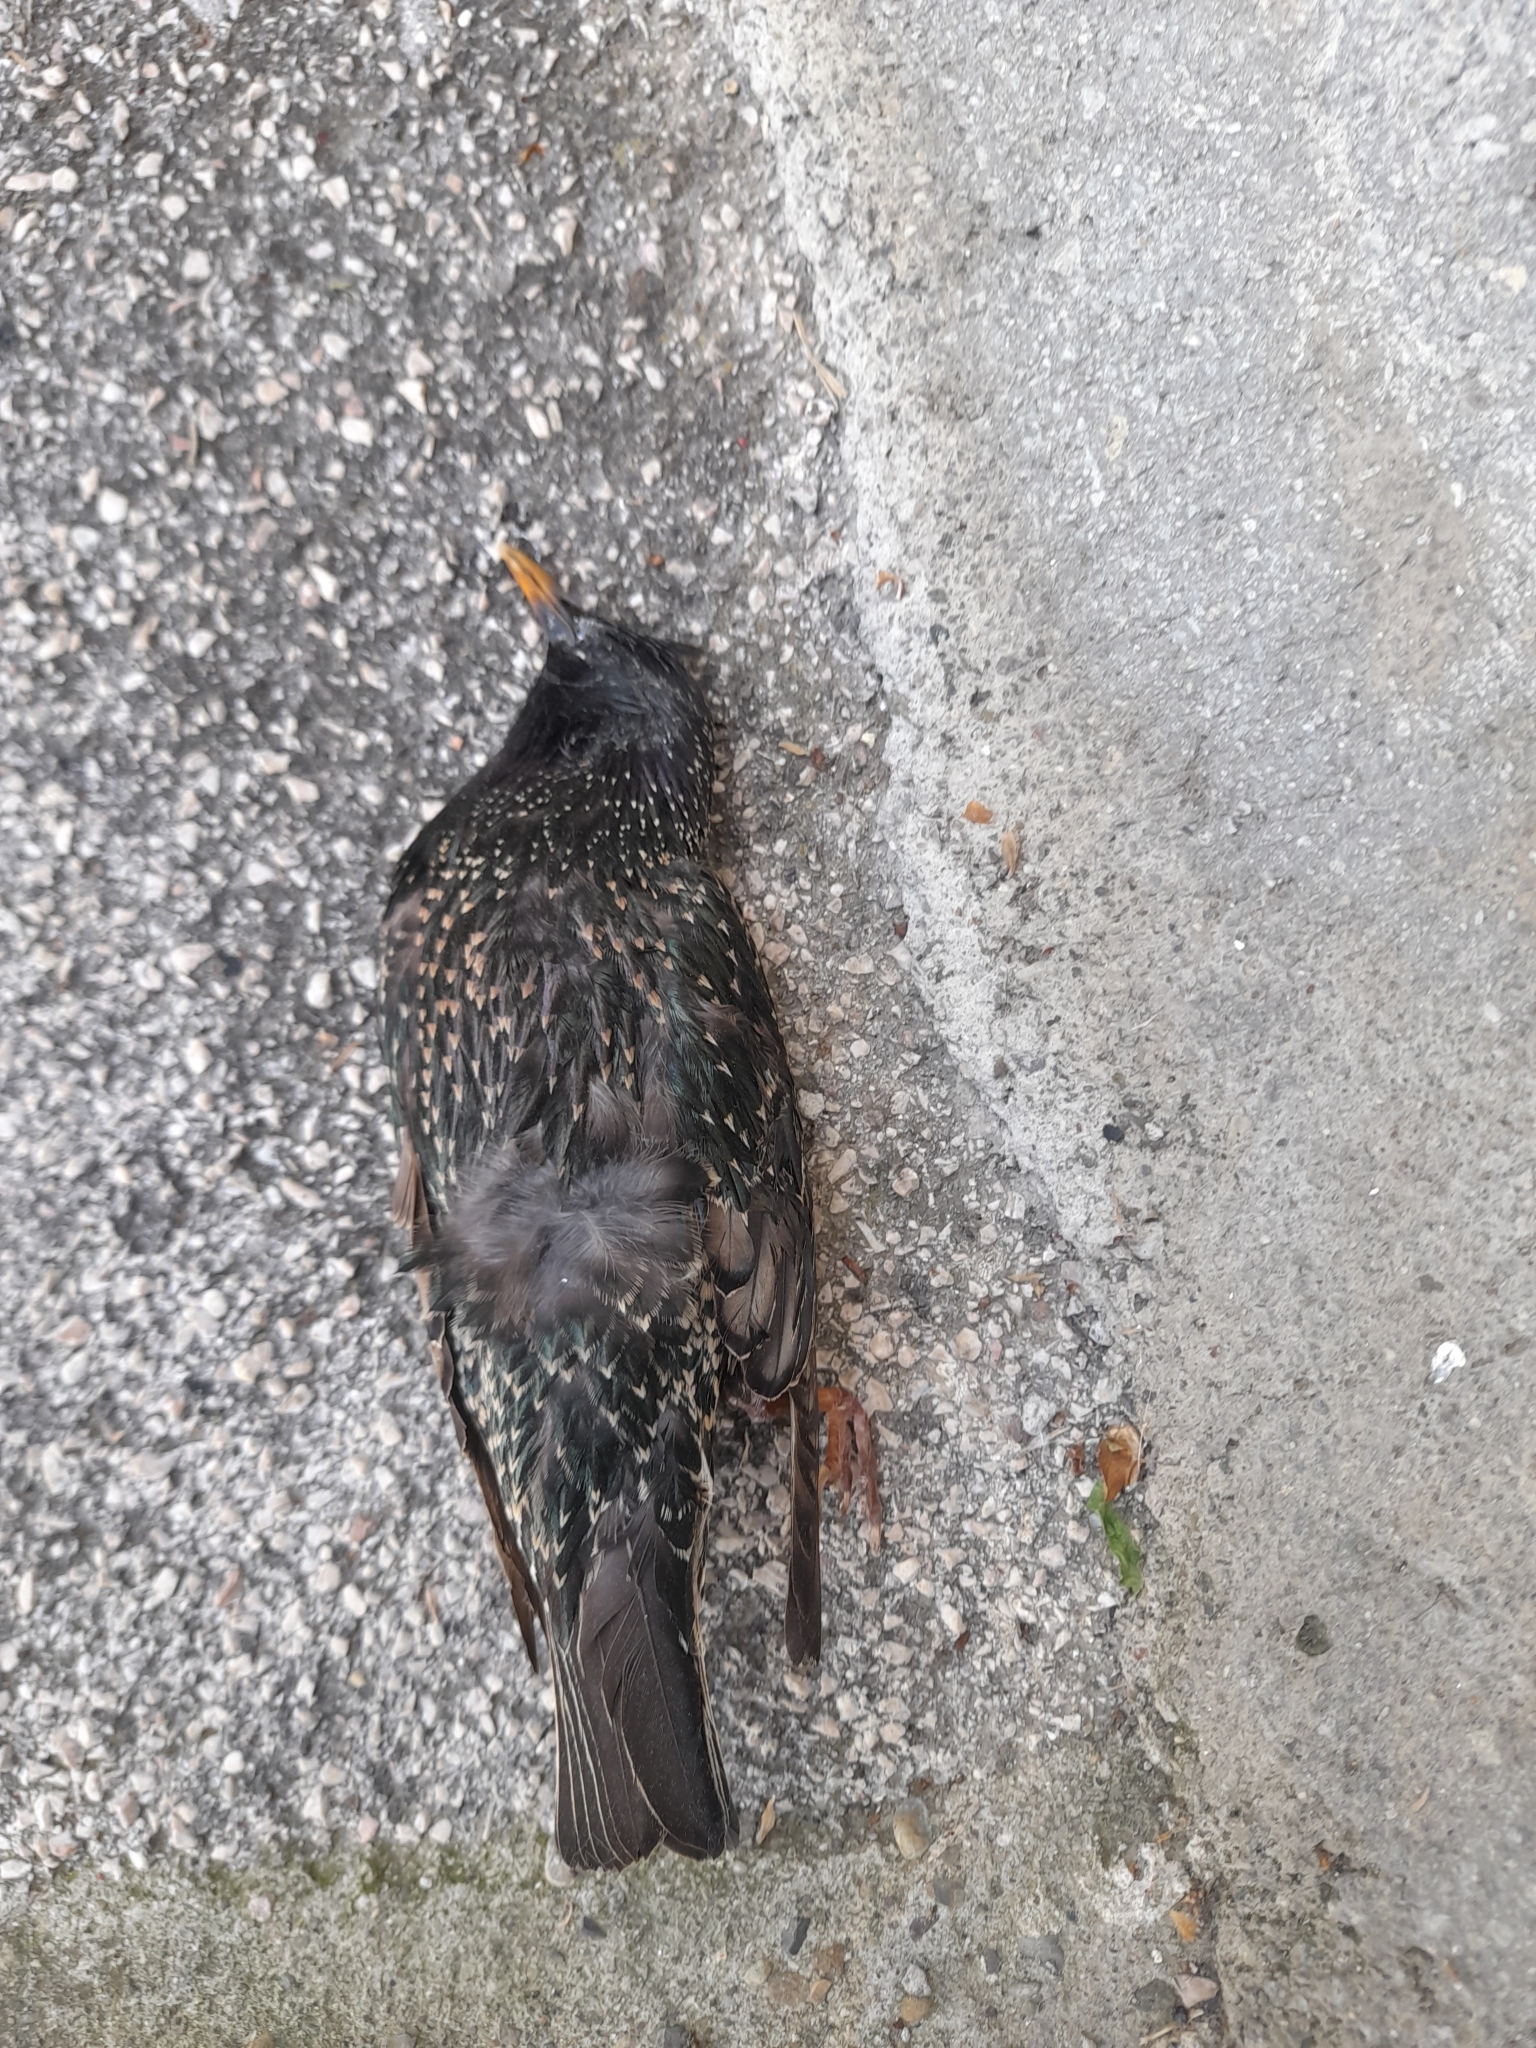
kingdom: Animalia
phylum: Chordata
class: Aves
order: Passeriformes
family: Sturnidae
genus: Sturnus
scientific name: Sturnus vulgaris
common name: Common starling
